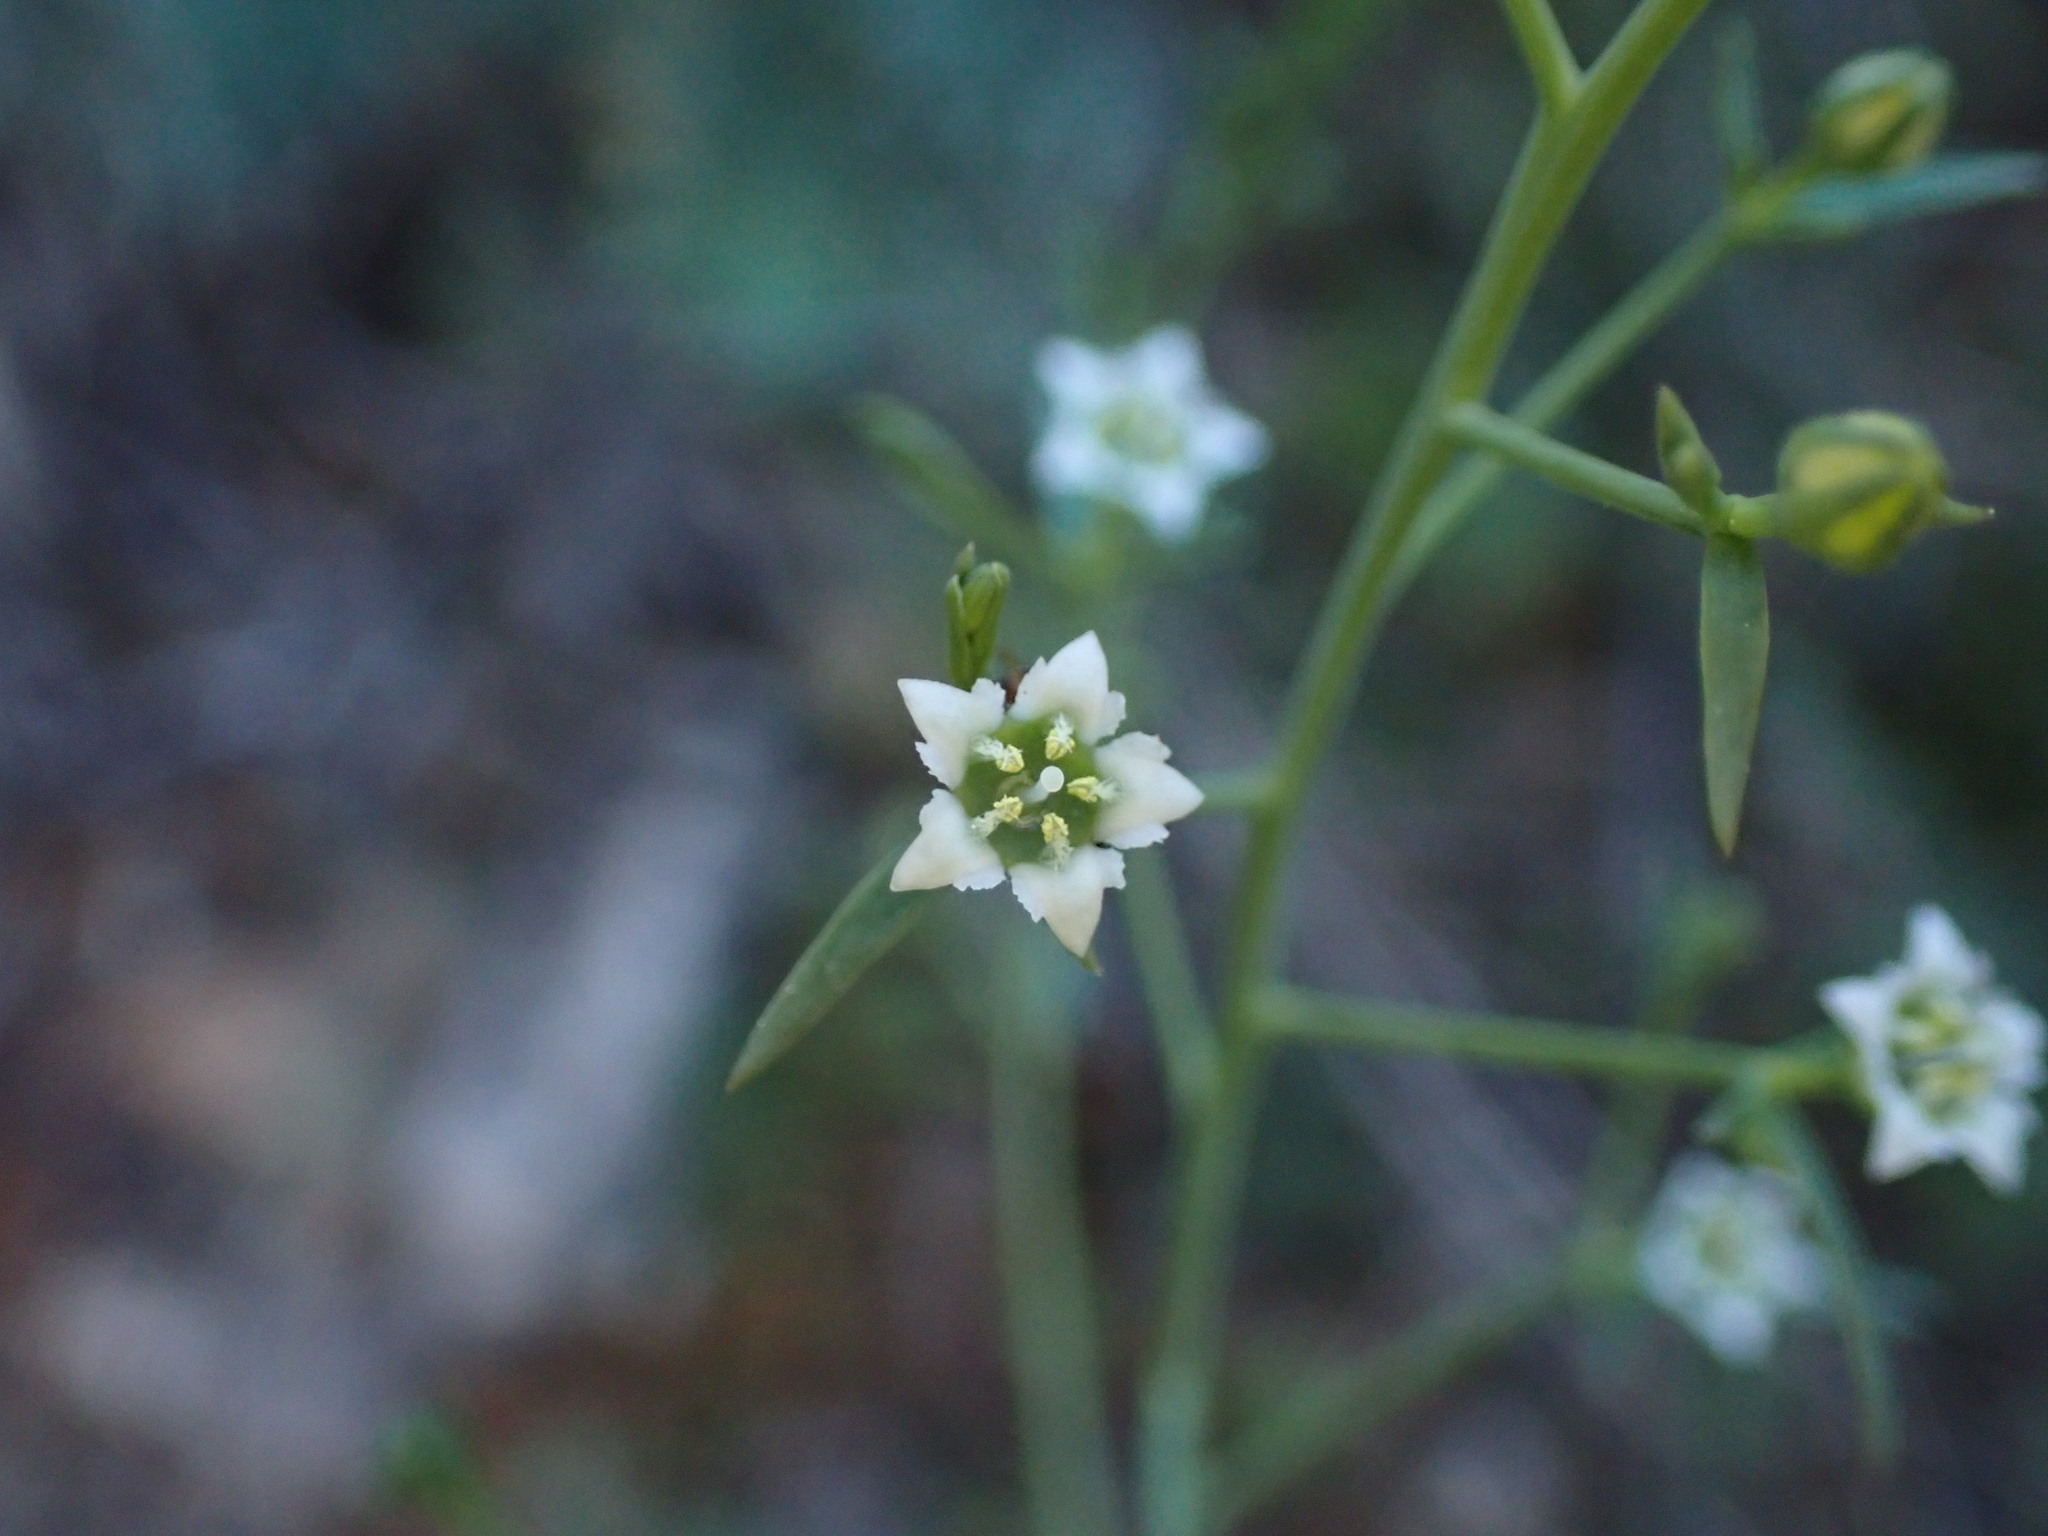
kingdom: Plantae
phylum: Tracheophyta
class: Magnoliopsida
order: Santalales
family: Thesiaceae
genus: Thesium
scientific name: Thesium divaricatum
